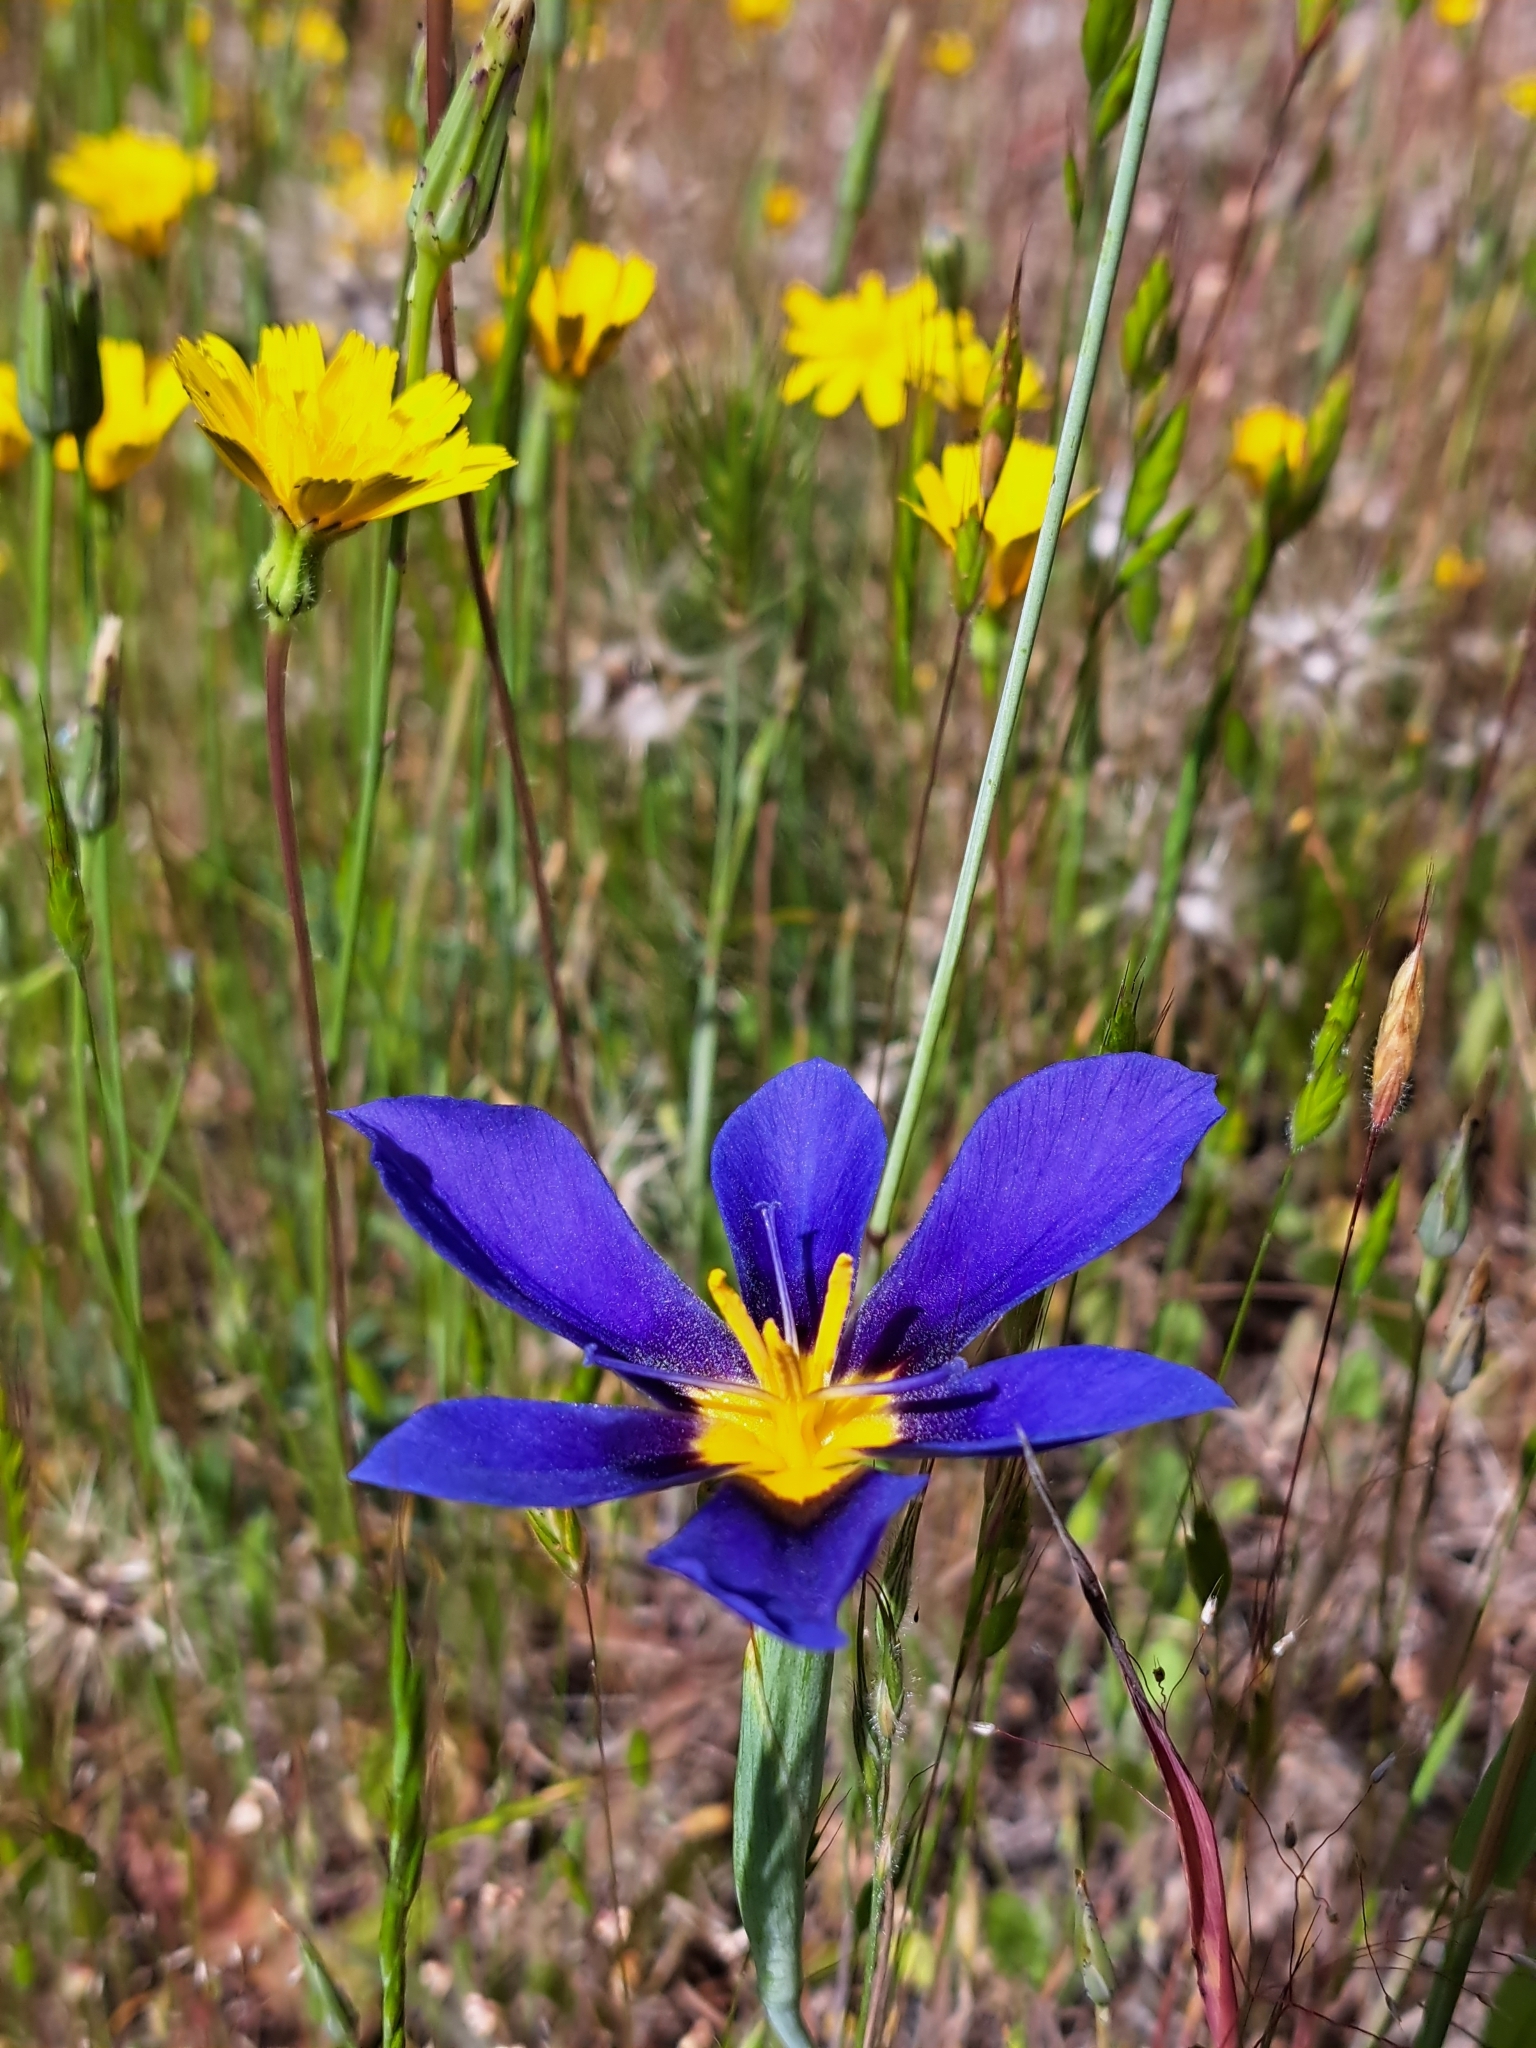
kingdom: Plantae
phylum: Tracheophyta
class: Liliopsida
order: Asparagales
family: Iridaceae
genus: Calydorea
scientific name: Calydorea xiphioides
